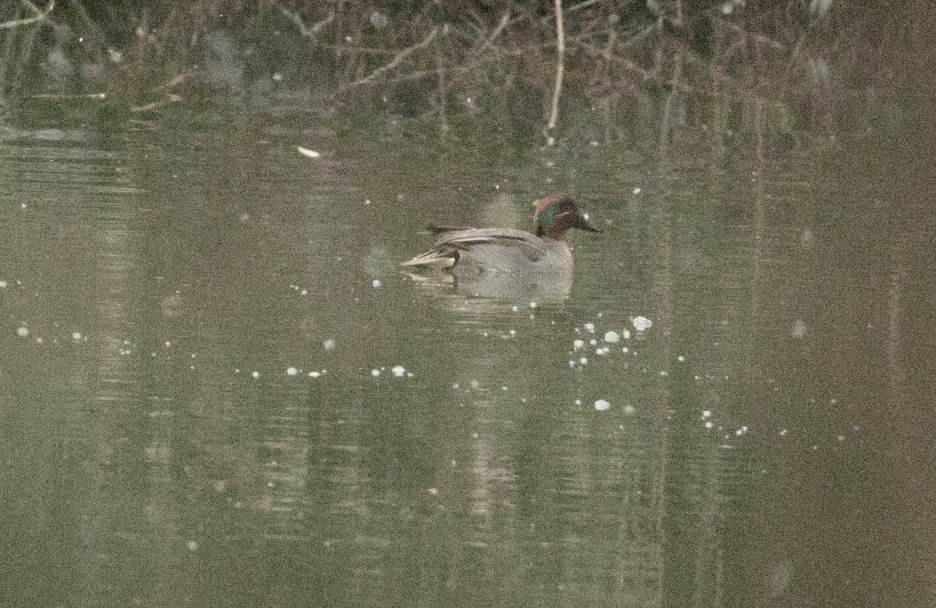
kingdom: Animalia
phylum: Chordata
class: Aves
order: Anseriformes
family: Anatidae
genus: Anas
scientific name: Anas crecca
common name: Eurasian teal
